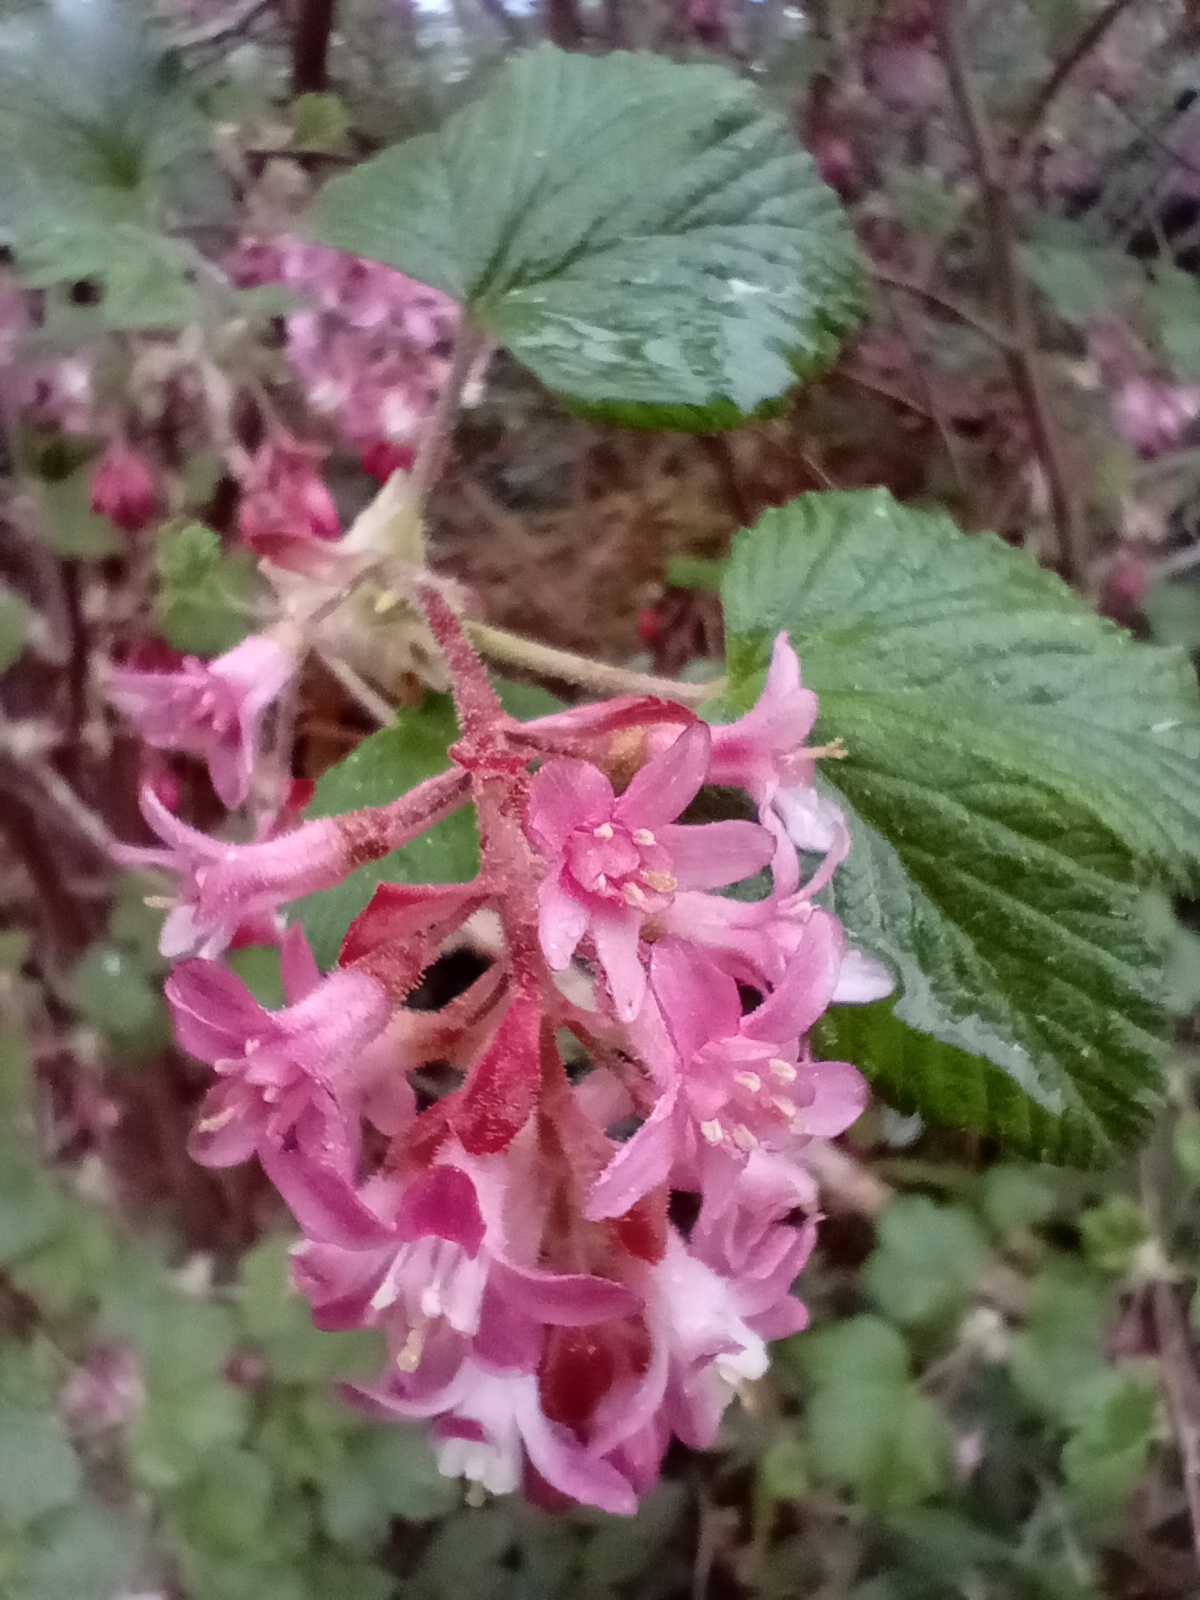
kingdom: Plantae
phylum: Tracheophyta
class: Magnoliopsida
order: Saxifragales
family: Grossulariaceae
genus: Ribes
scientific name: Ribes sanguineum
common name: Flowering currant
